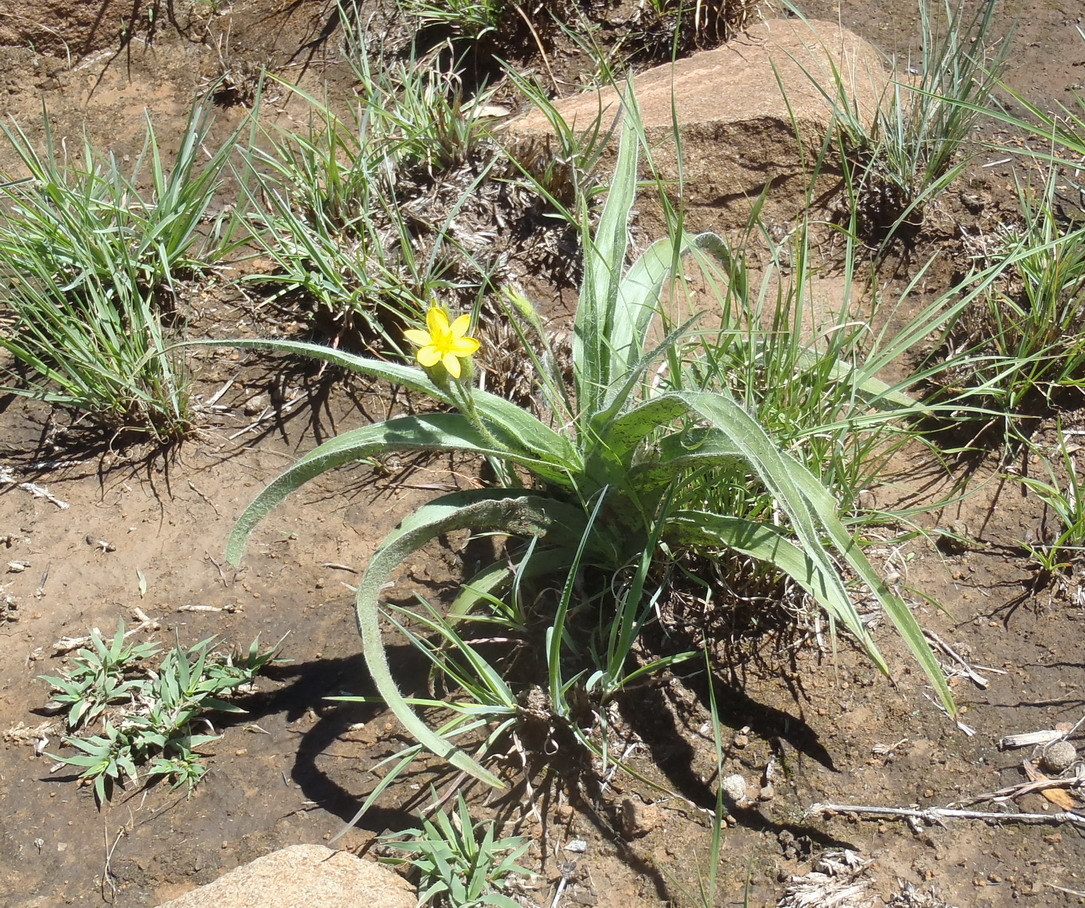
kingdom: Plantae
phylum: Tracheophyta
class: Liliopsida
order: Asparagales
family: Hypoxidaceae
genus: Hypoxis
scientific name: Hypoxis hemerocallidea
